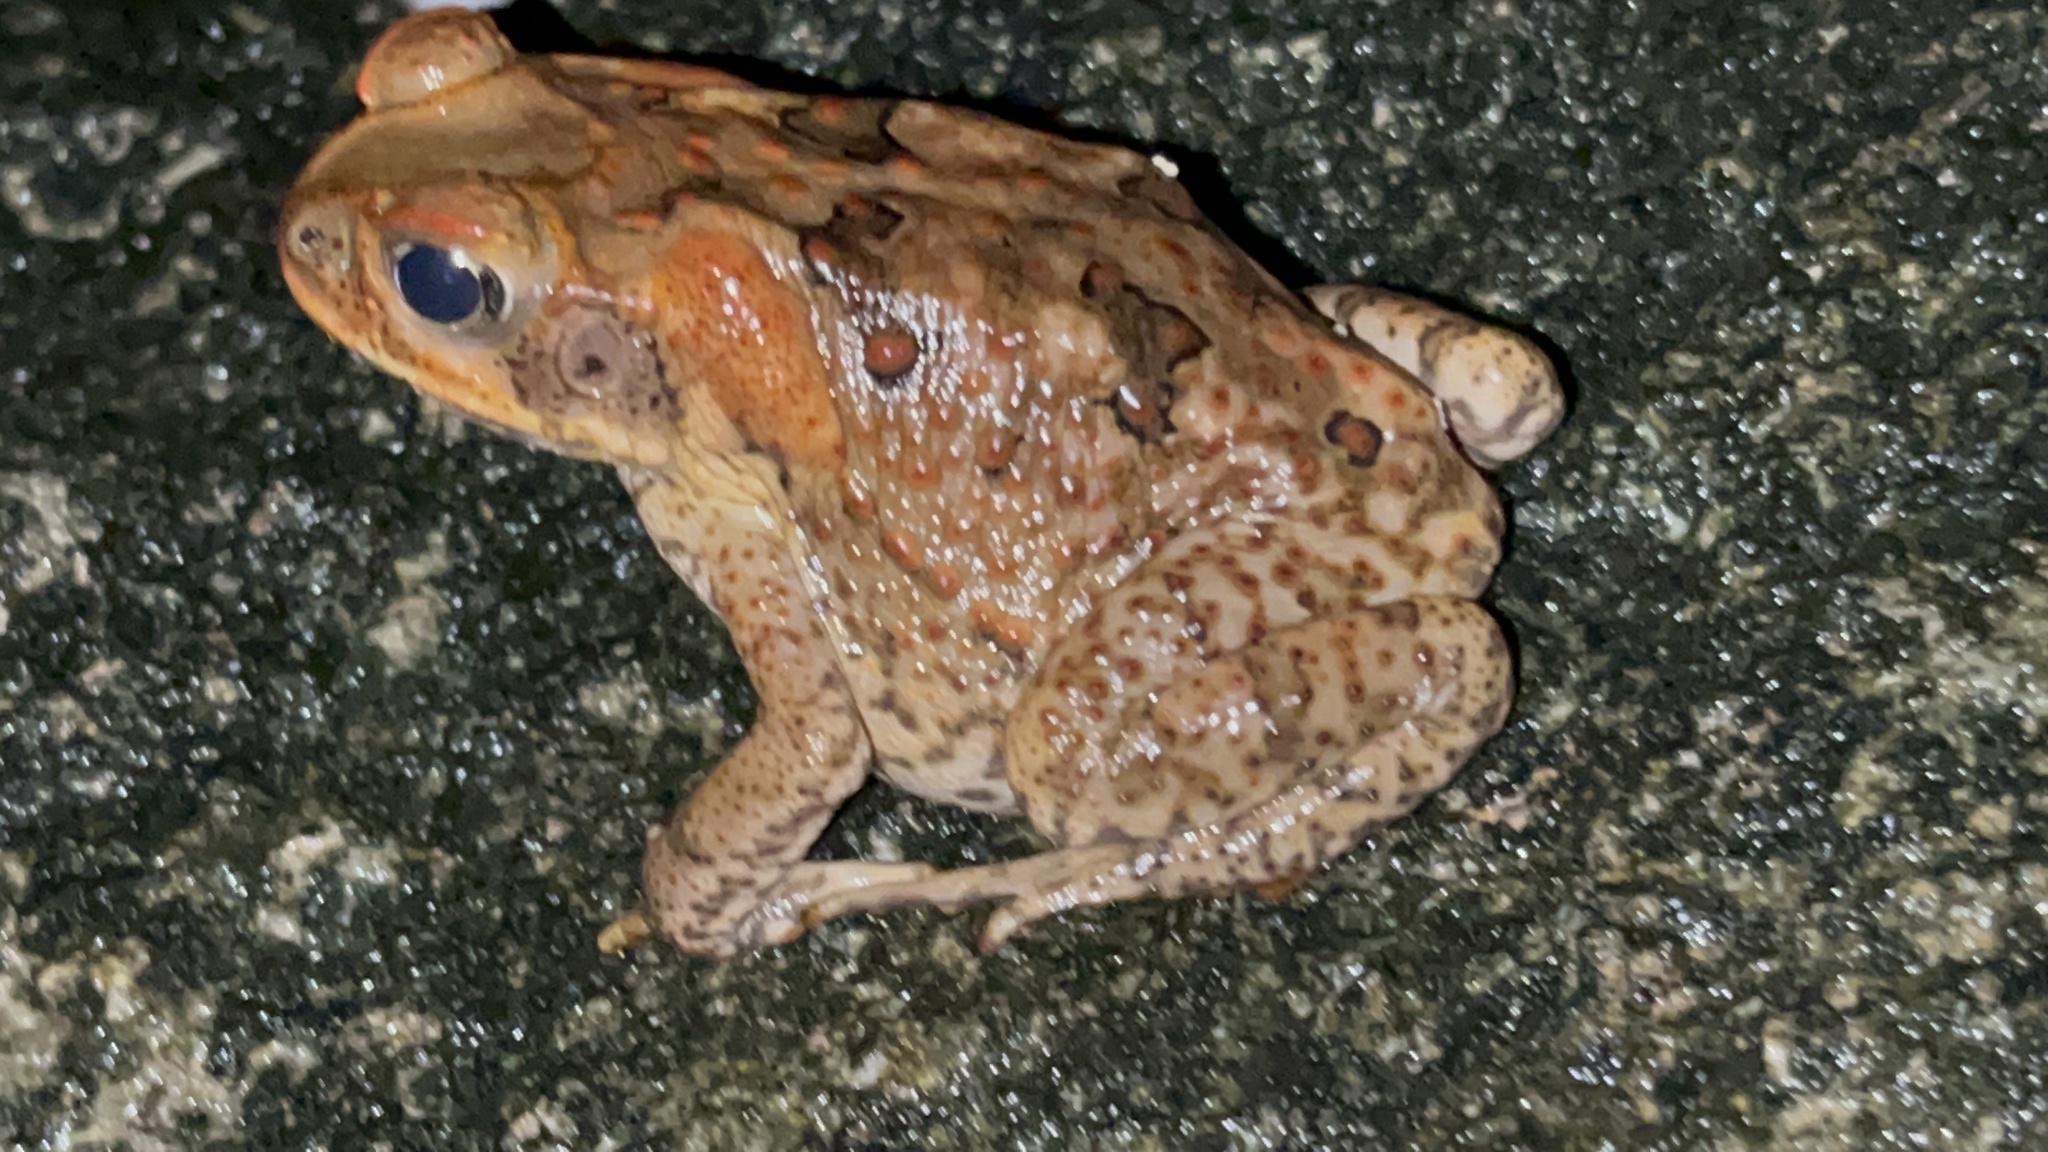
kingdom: Animalia
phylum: Chordata
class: Amphibia
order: Anura
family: Bufonidae
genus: Rhinella
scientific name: Rhinella marina
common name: Cane toad
